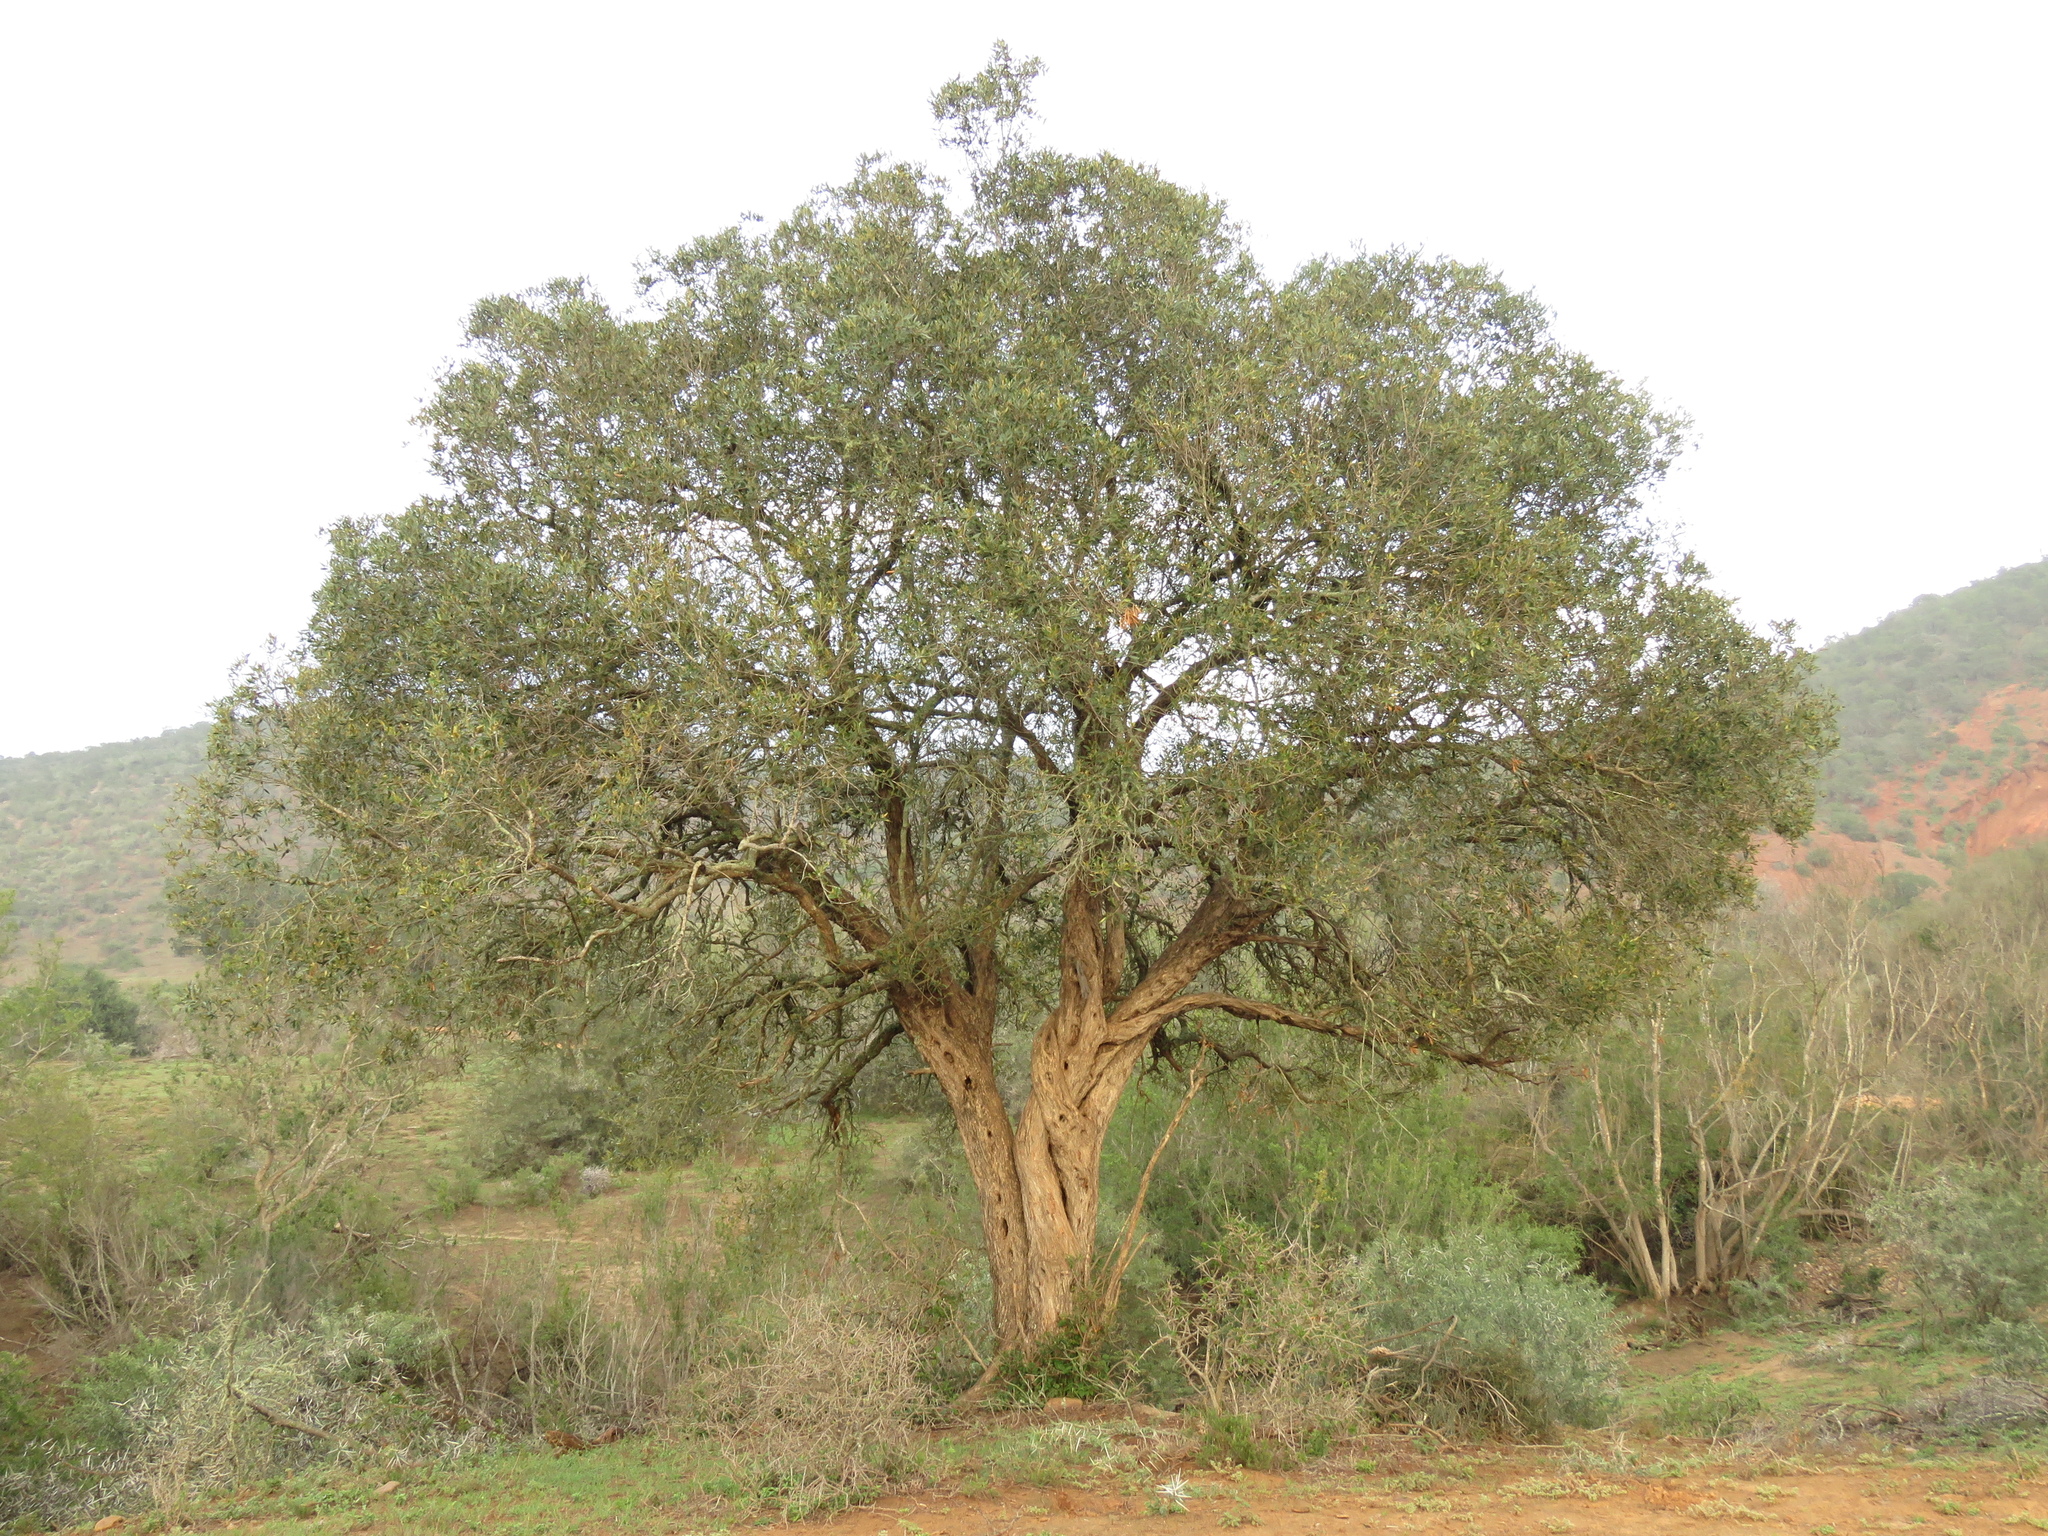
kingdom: Plantae
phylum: Tracheophyta
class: Magnoliopsida
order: Lamiales
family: Oleaceae
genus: Olea
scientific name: Olea europaea
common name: Olive
